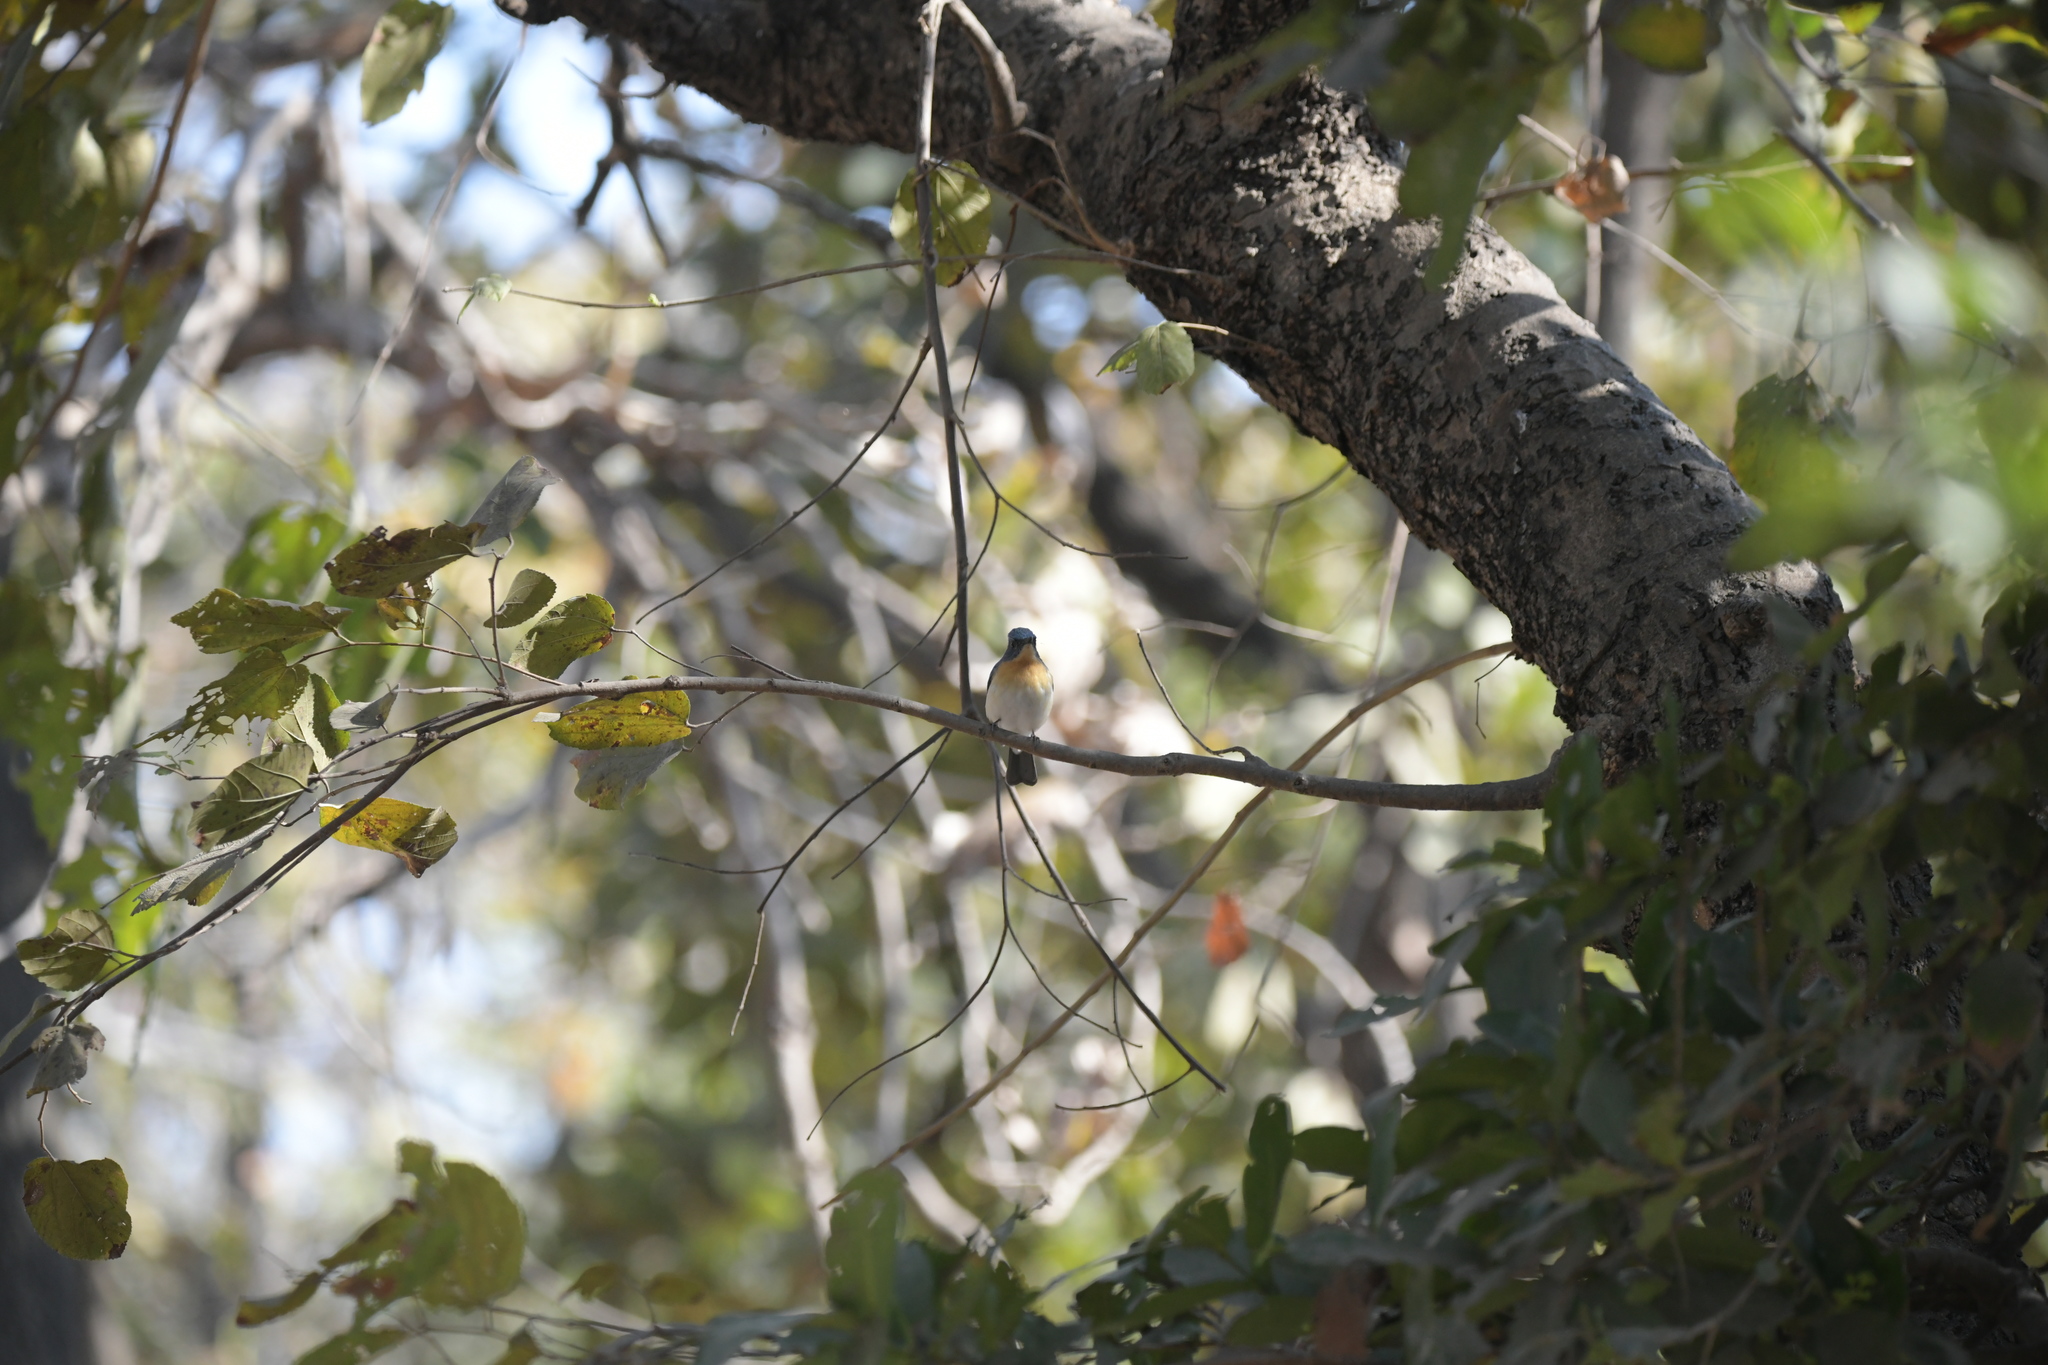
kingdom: Animalia
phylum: Chordata
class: Aves
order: Passeriformes
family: Muscicapidae
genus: Cyornis
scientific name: Cyornis tickelliae
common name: Tickell's blue flycatcher
